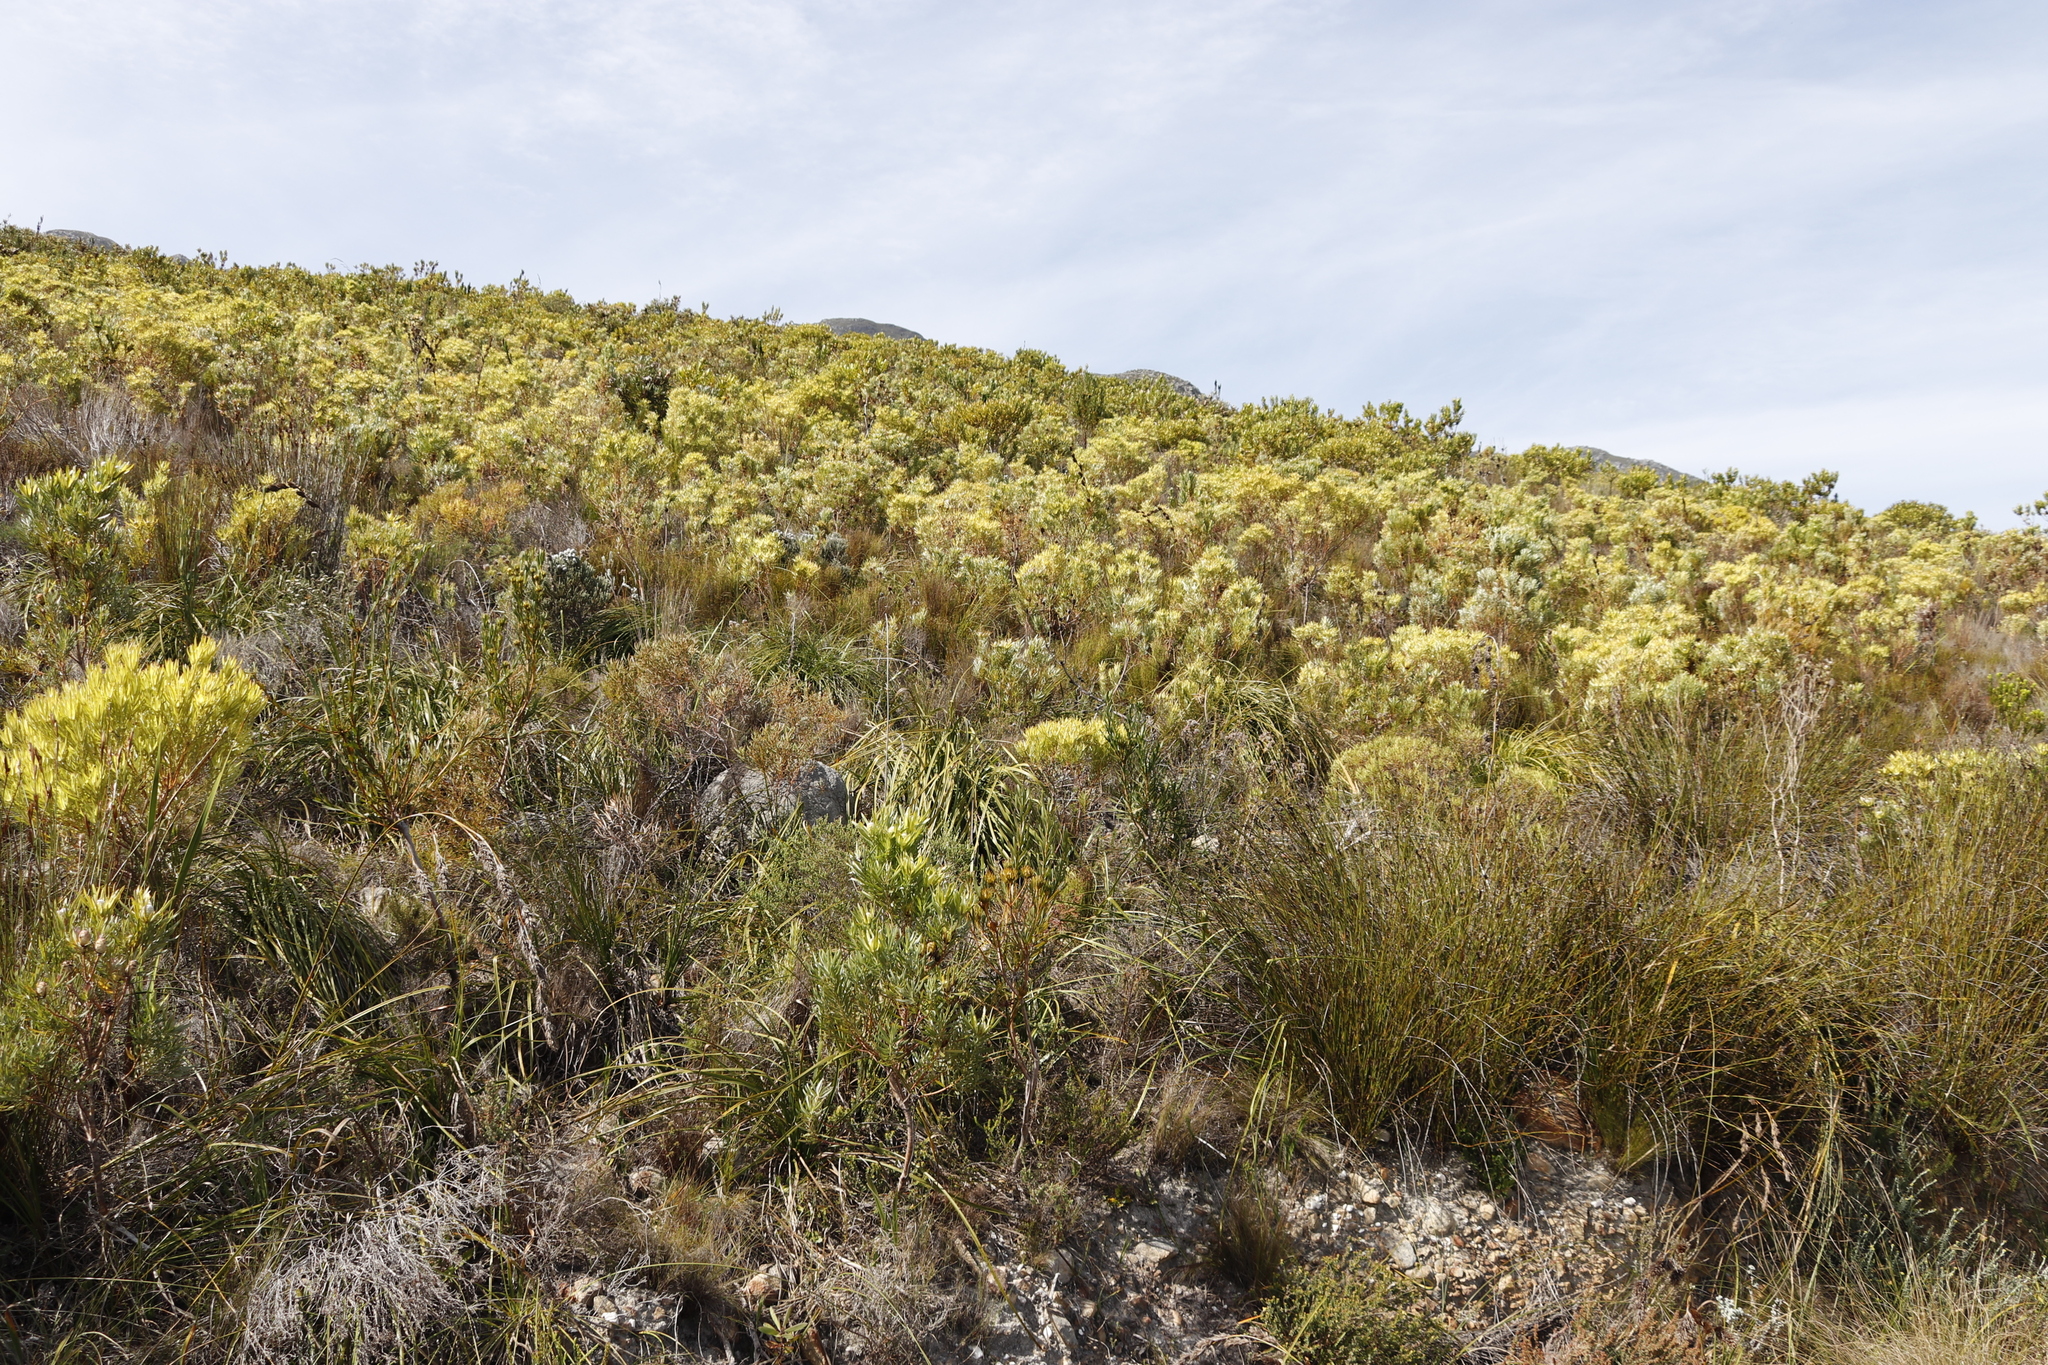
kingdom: Plantae
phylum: Tracheophyta
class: Magnoliopsida
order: Proteales
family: Proteaceae
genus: Leucadendron
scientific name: Leucadendron xanthoconus
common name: Sickle-leaf conebush
